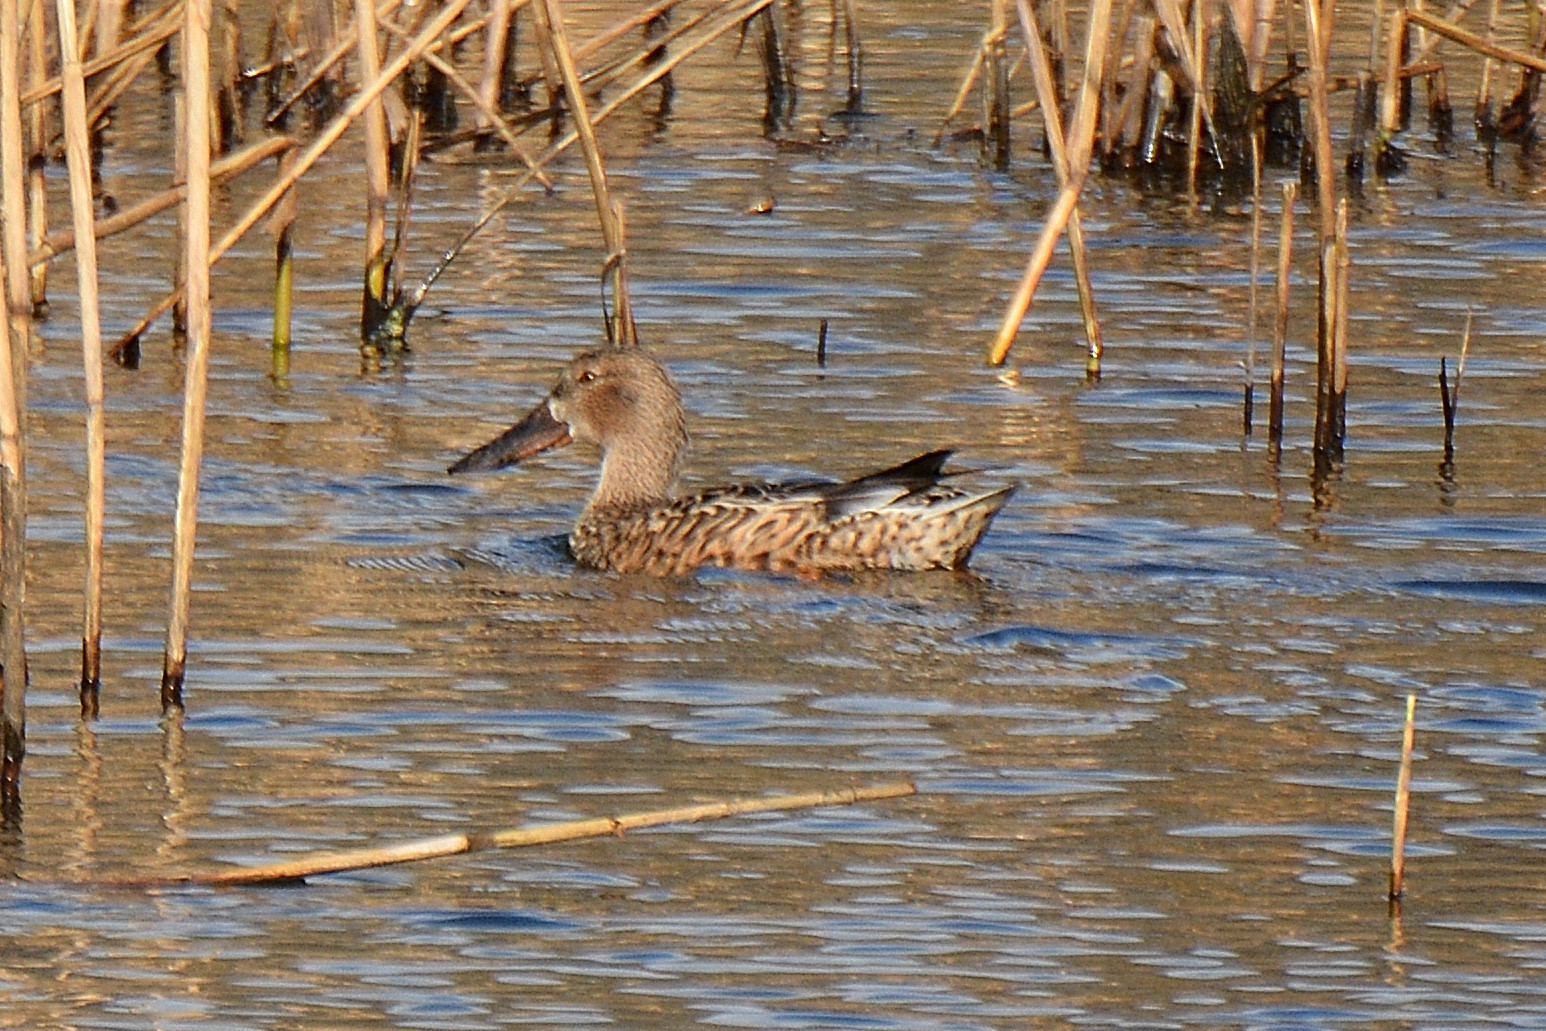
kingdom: Animalia
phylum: Chordata
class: Aves
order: Anseriformes
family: Anatidae
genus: Spatula
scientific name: Spatula clypeata
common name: Northern shoveler
